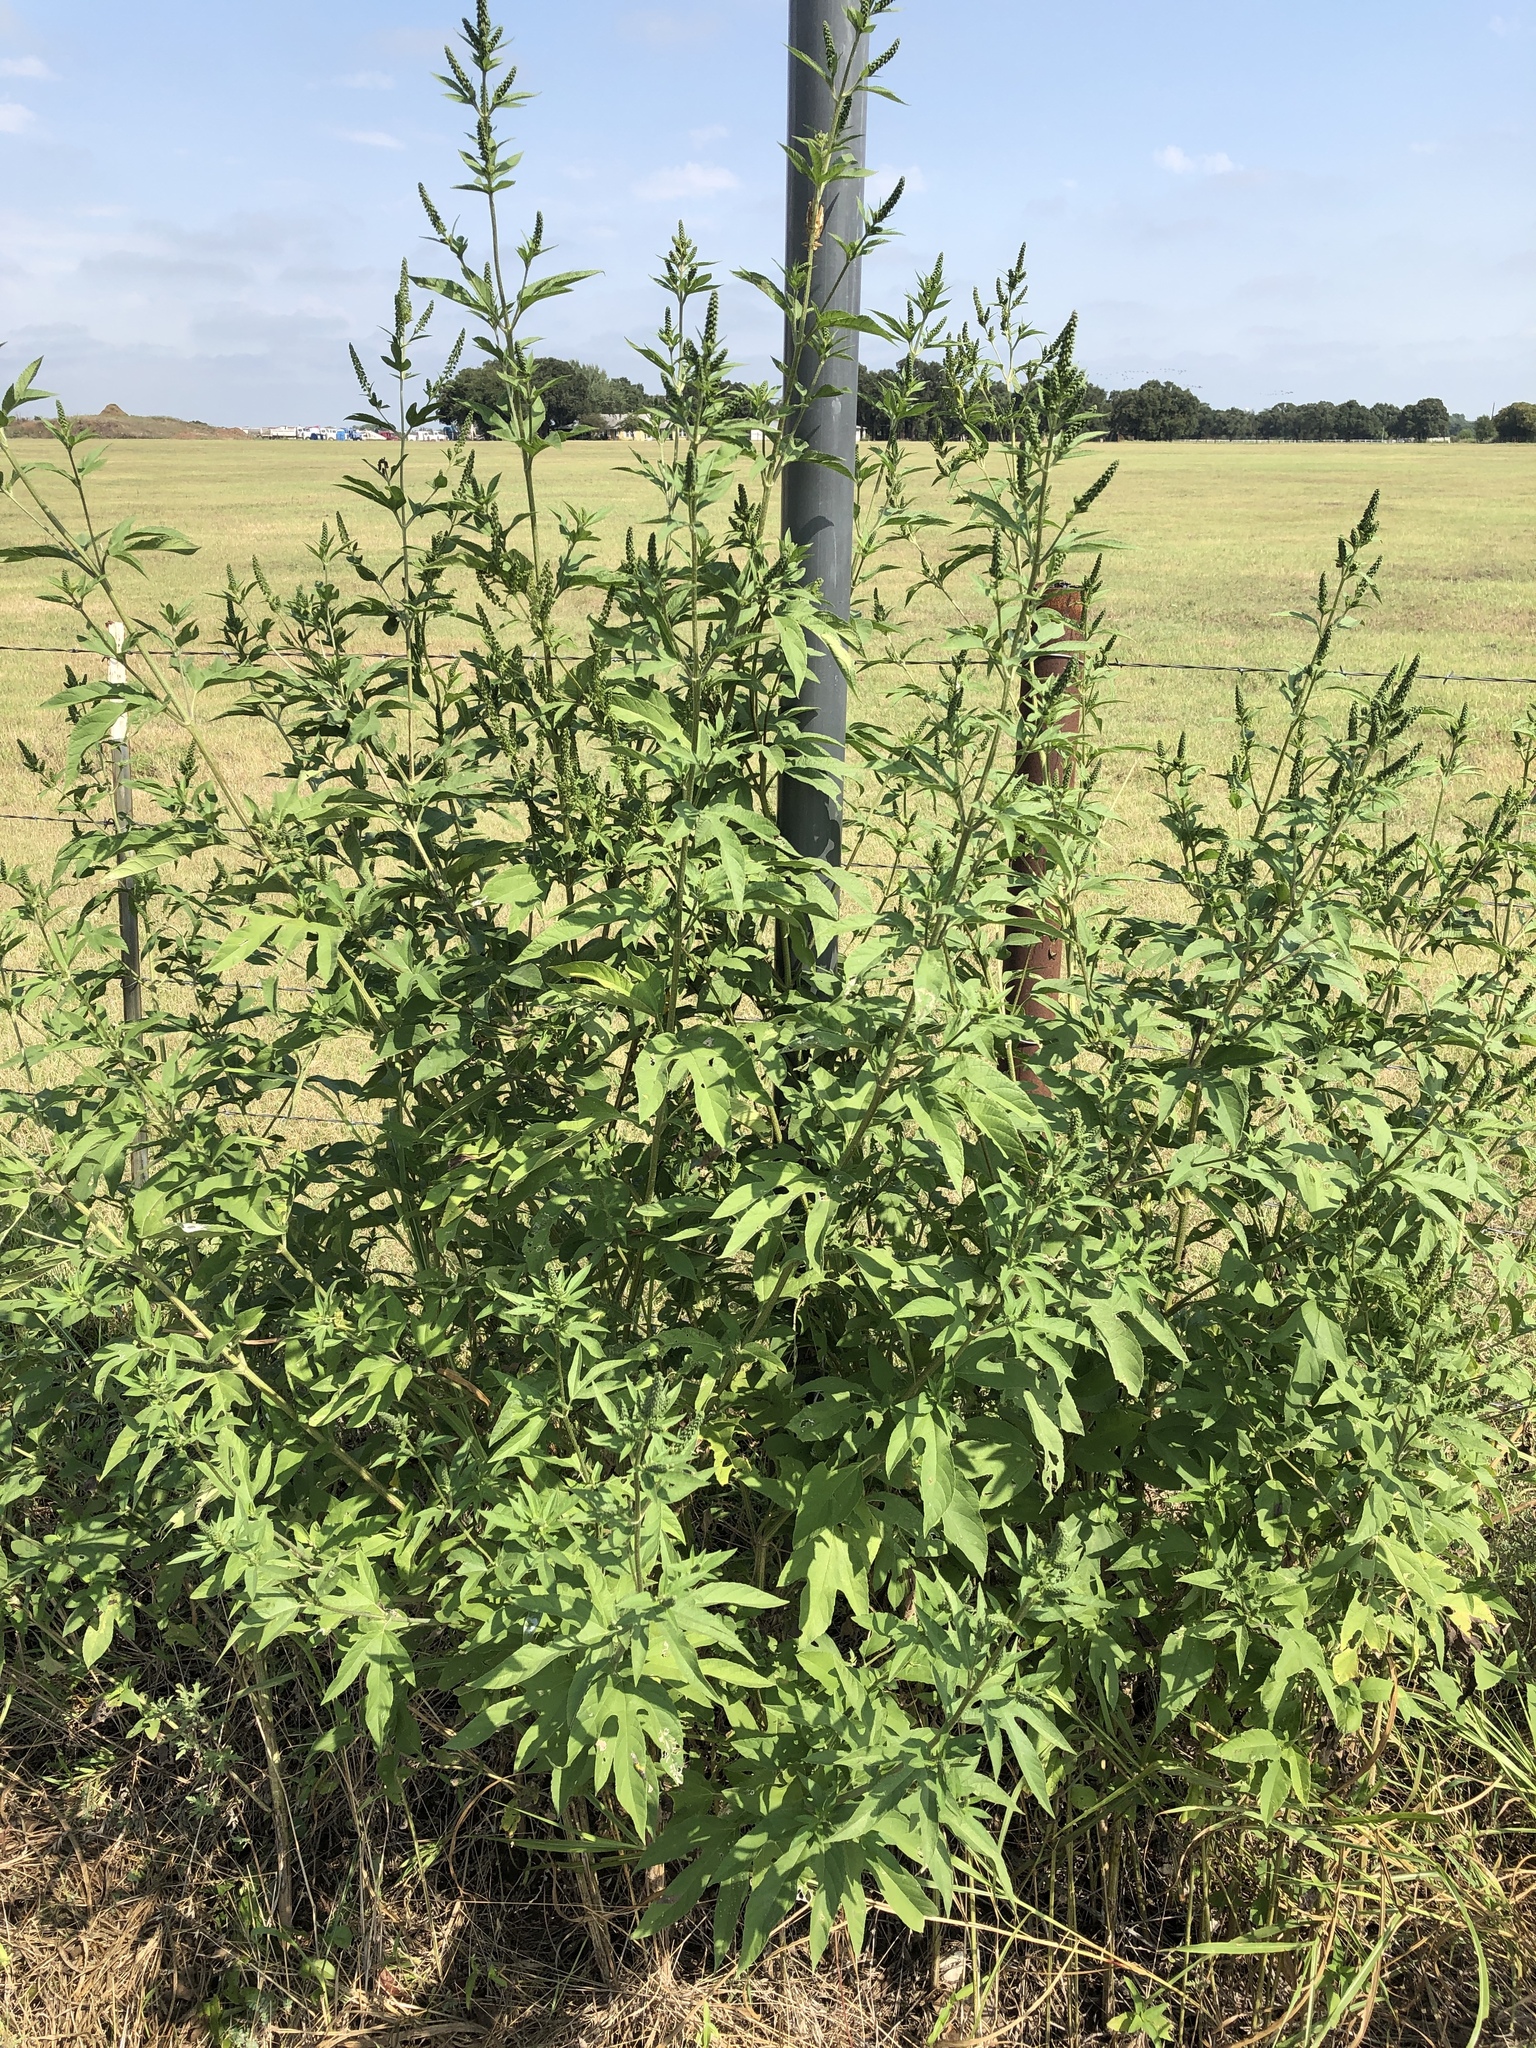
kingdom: Plantae
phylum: Tracheophyta
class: Magnoliopsida
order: Asterales
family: Asteraceae
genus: Ambrosia
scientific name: Ambrosia trifida
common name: Giant ragweed
